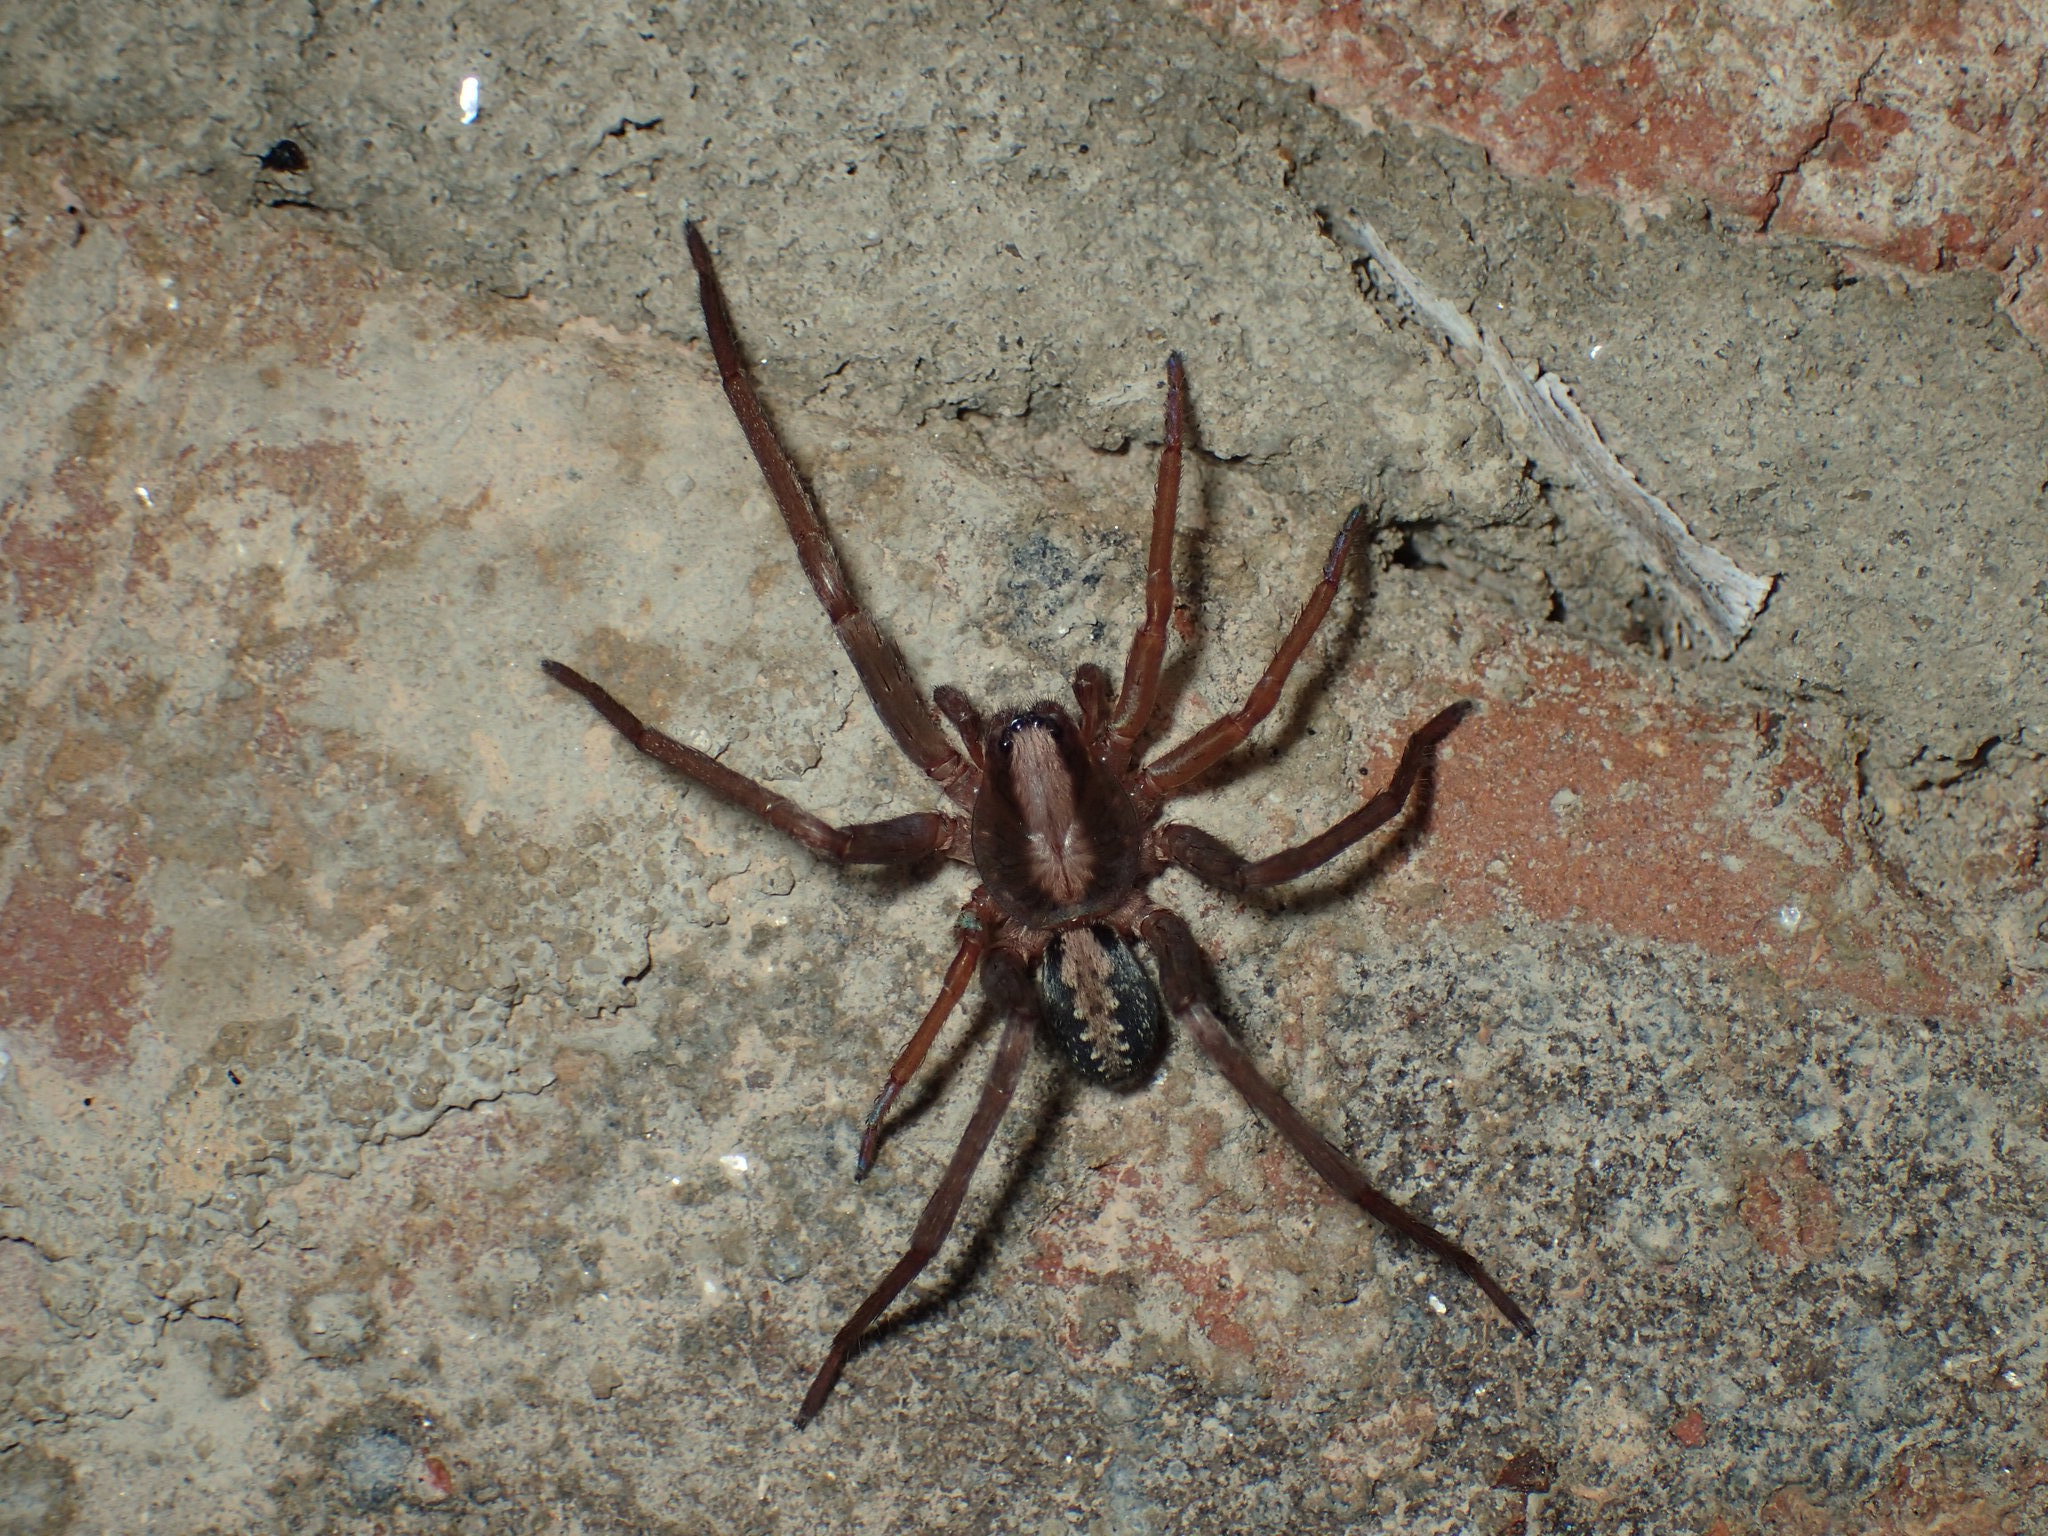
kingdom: Animalia
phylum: Arthropoda
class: Arachnida
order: Araneae
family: Ctenidae
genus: Ctenus
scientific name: Ctenus hibernalis
